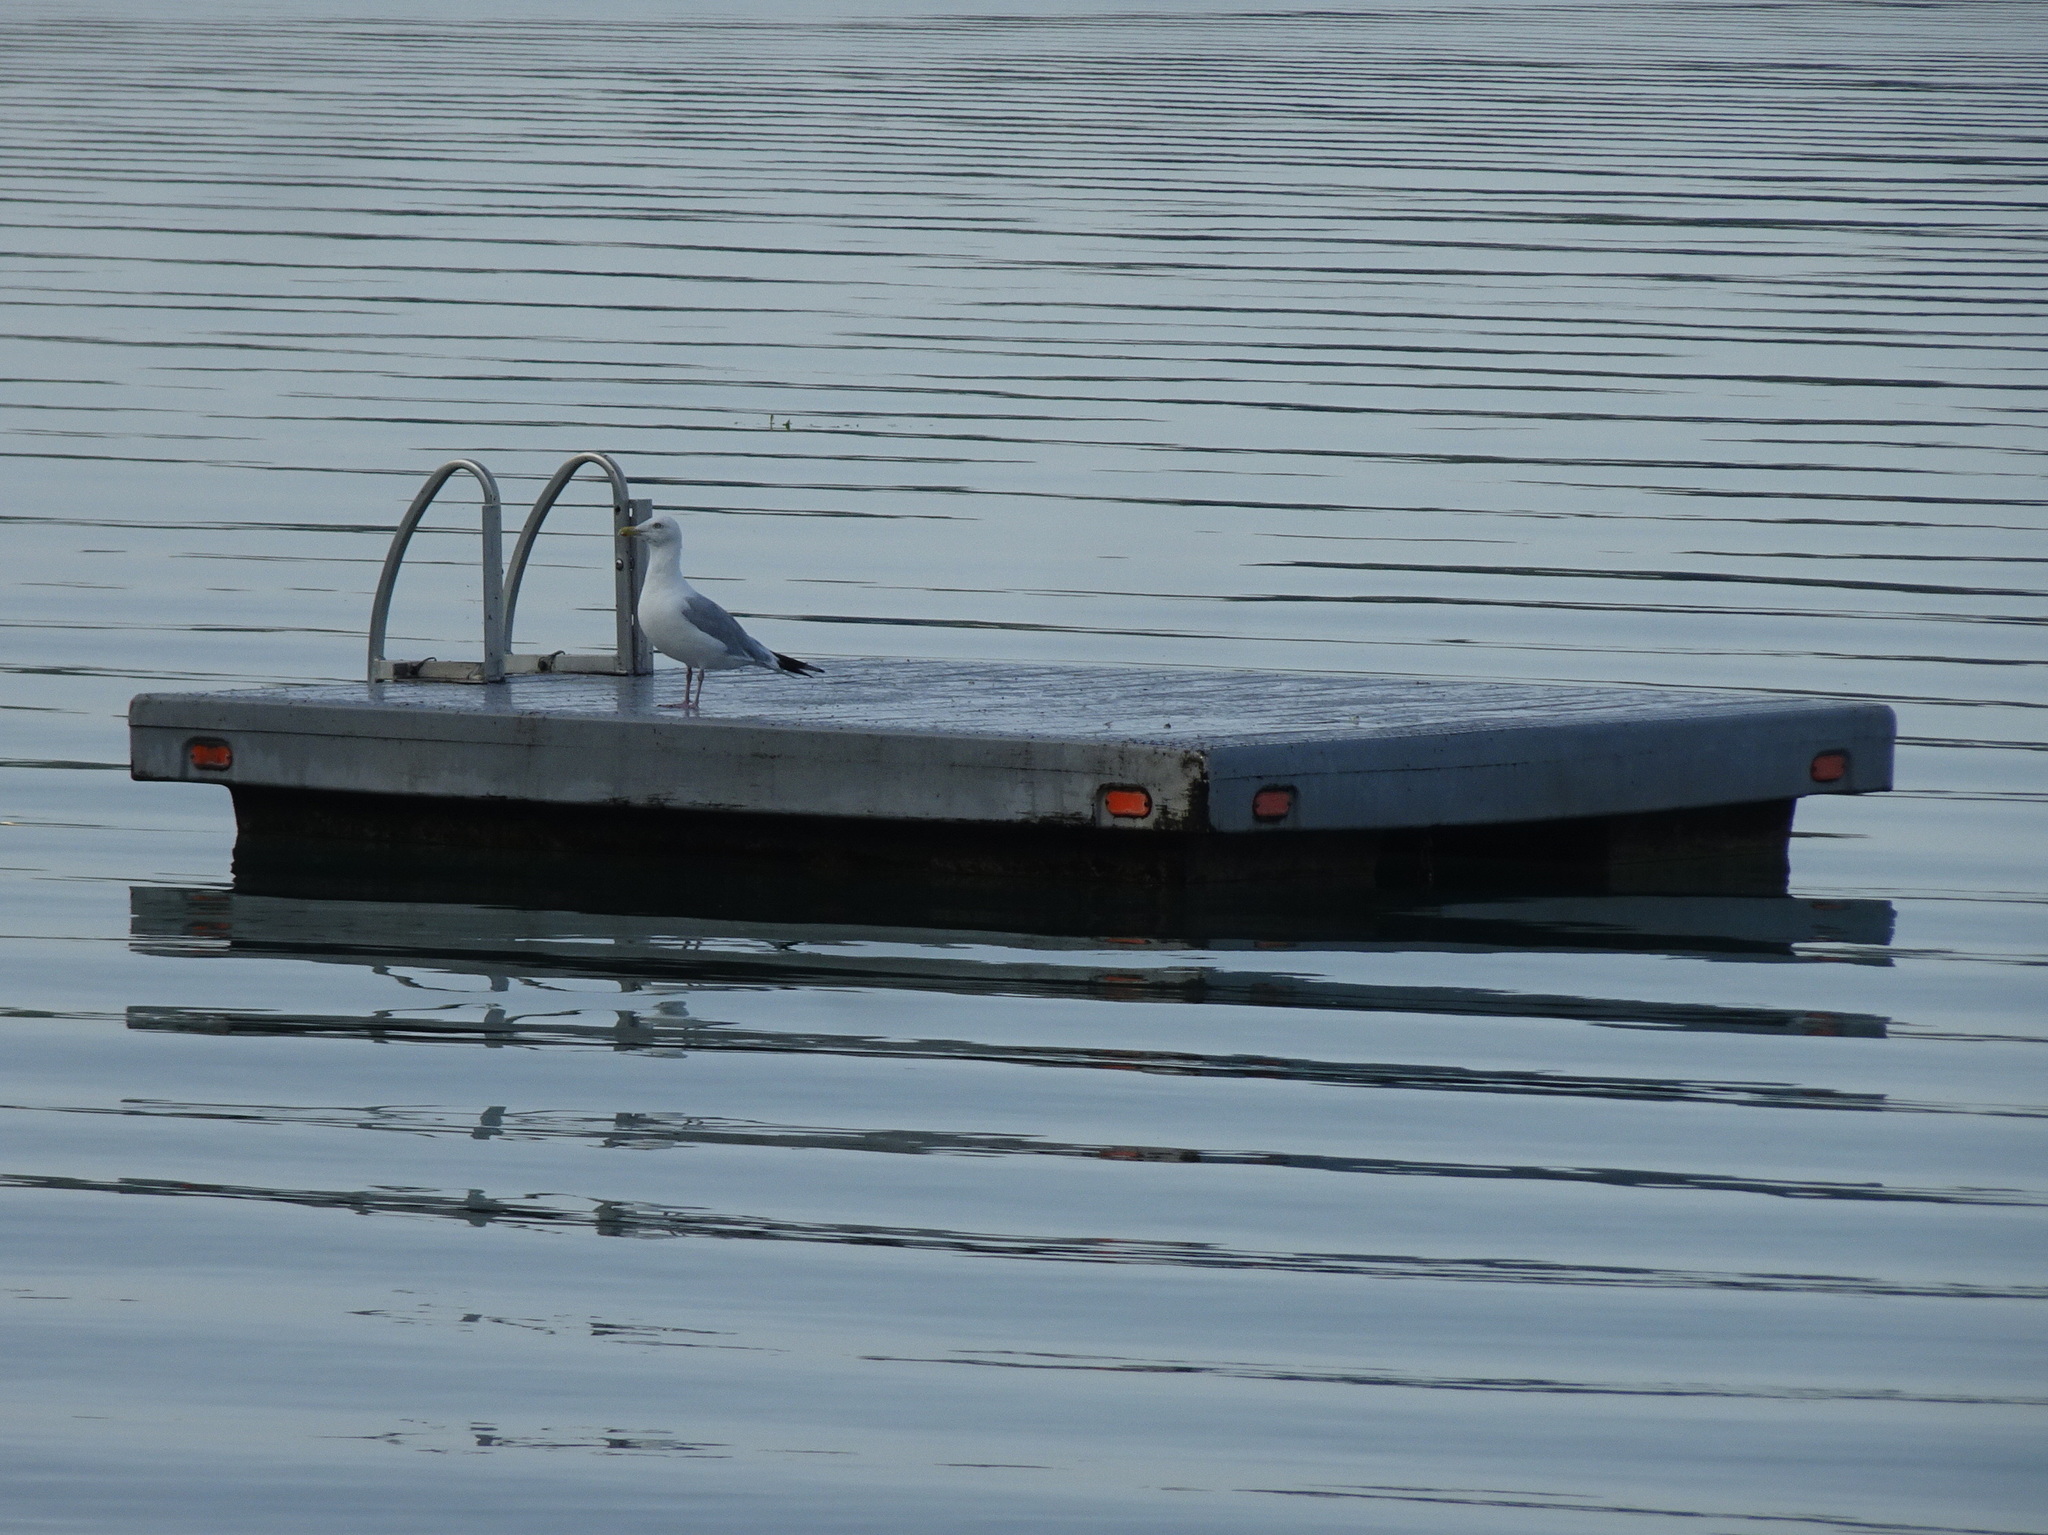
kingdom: Animalia
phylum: Chordata
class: Aves
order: Charadriiformes
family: Laridae
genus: Larus
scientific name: Larus argentatus
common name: Herring gull
